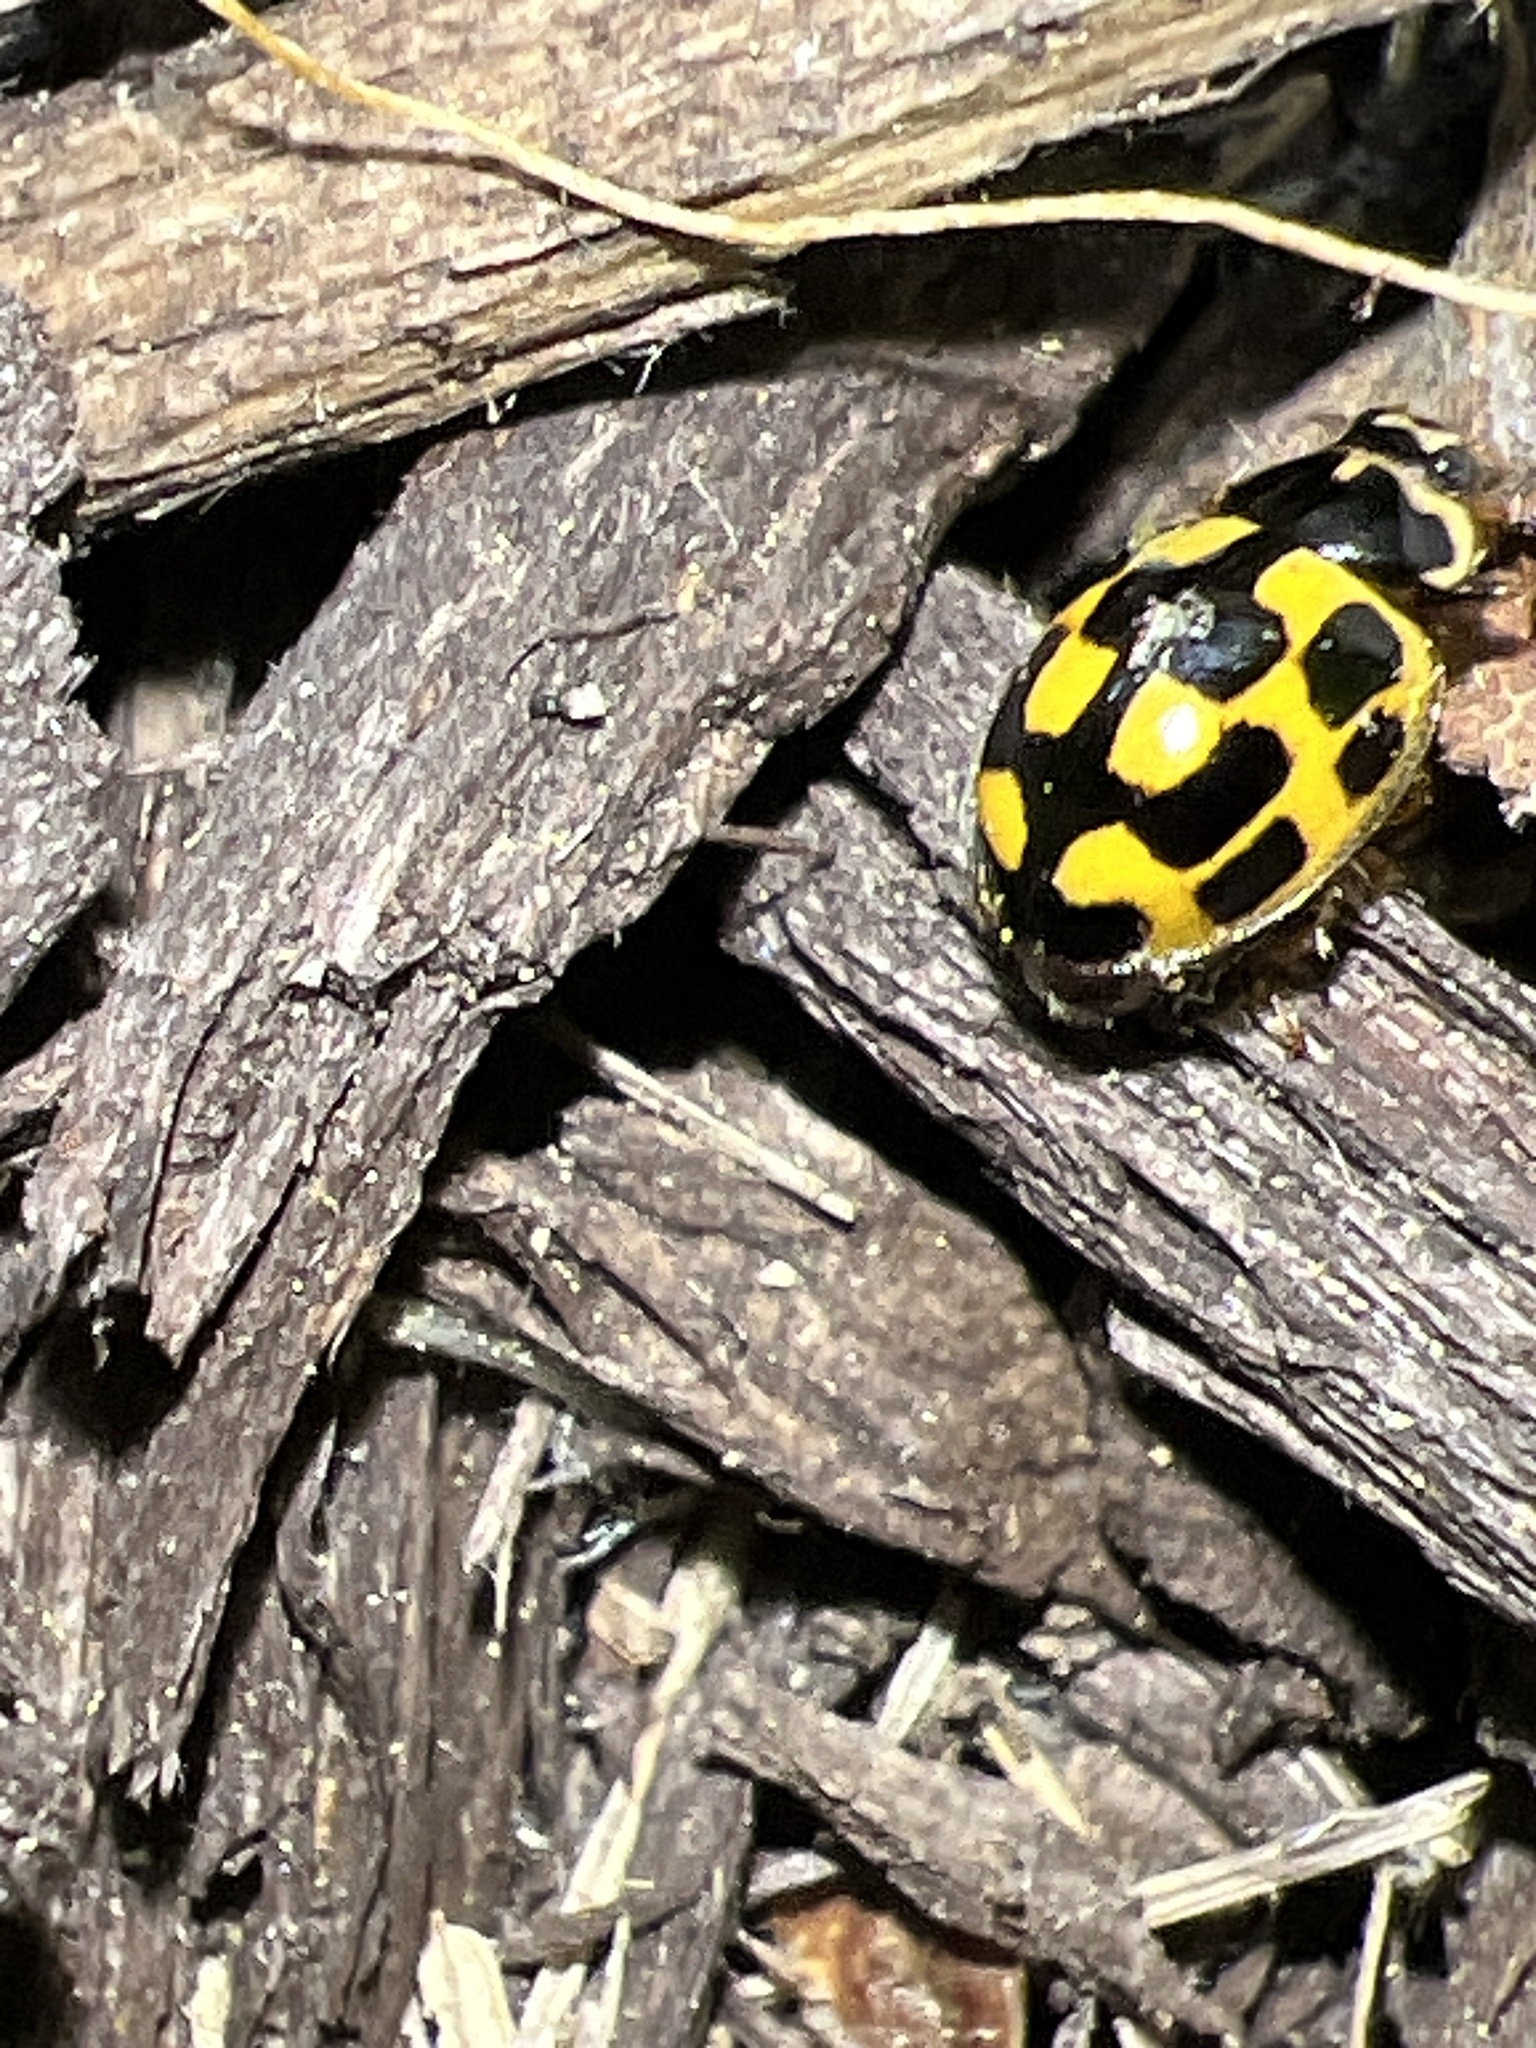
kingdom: Animalia
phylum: Arthropoda
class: Insecta
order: Coleoptera
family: Coccinellidae
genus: Propylaea
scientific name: Propylaea quatuordecimpunctata
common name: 14-spotted ladybird beetle
